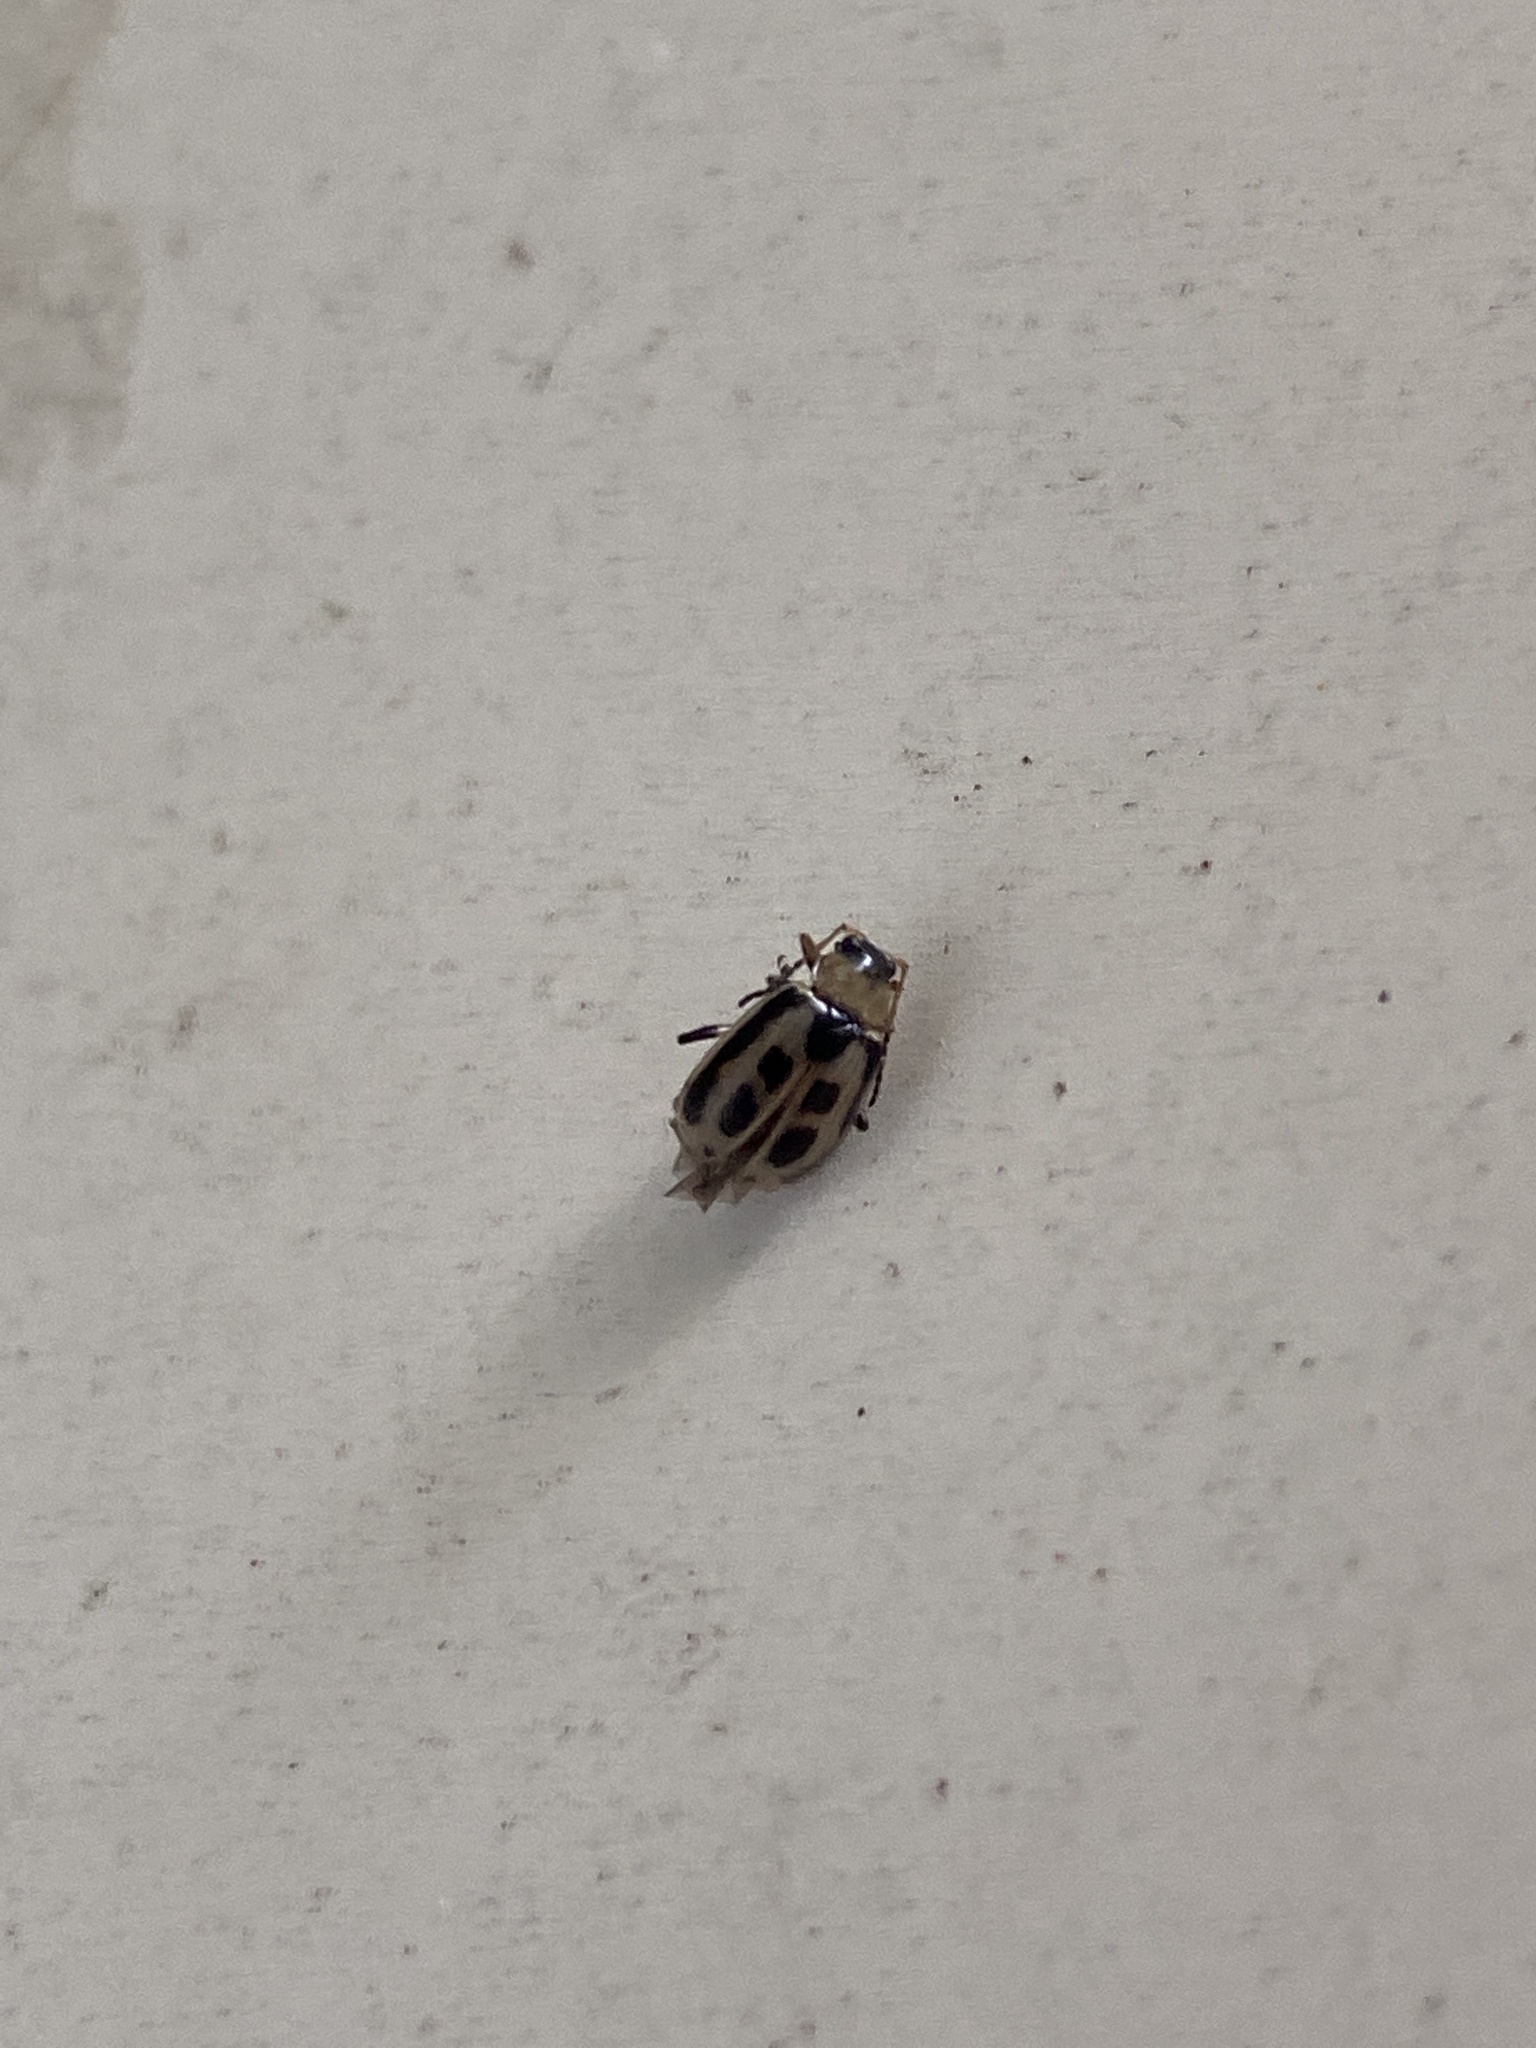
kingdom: Animalia
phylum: Arthropoda
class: Insecta
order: Coleoptera
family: Chrysomelidae
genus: Cerotoma
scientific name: Cerotoma trifurcata
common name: Bean leaf beetle
